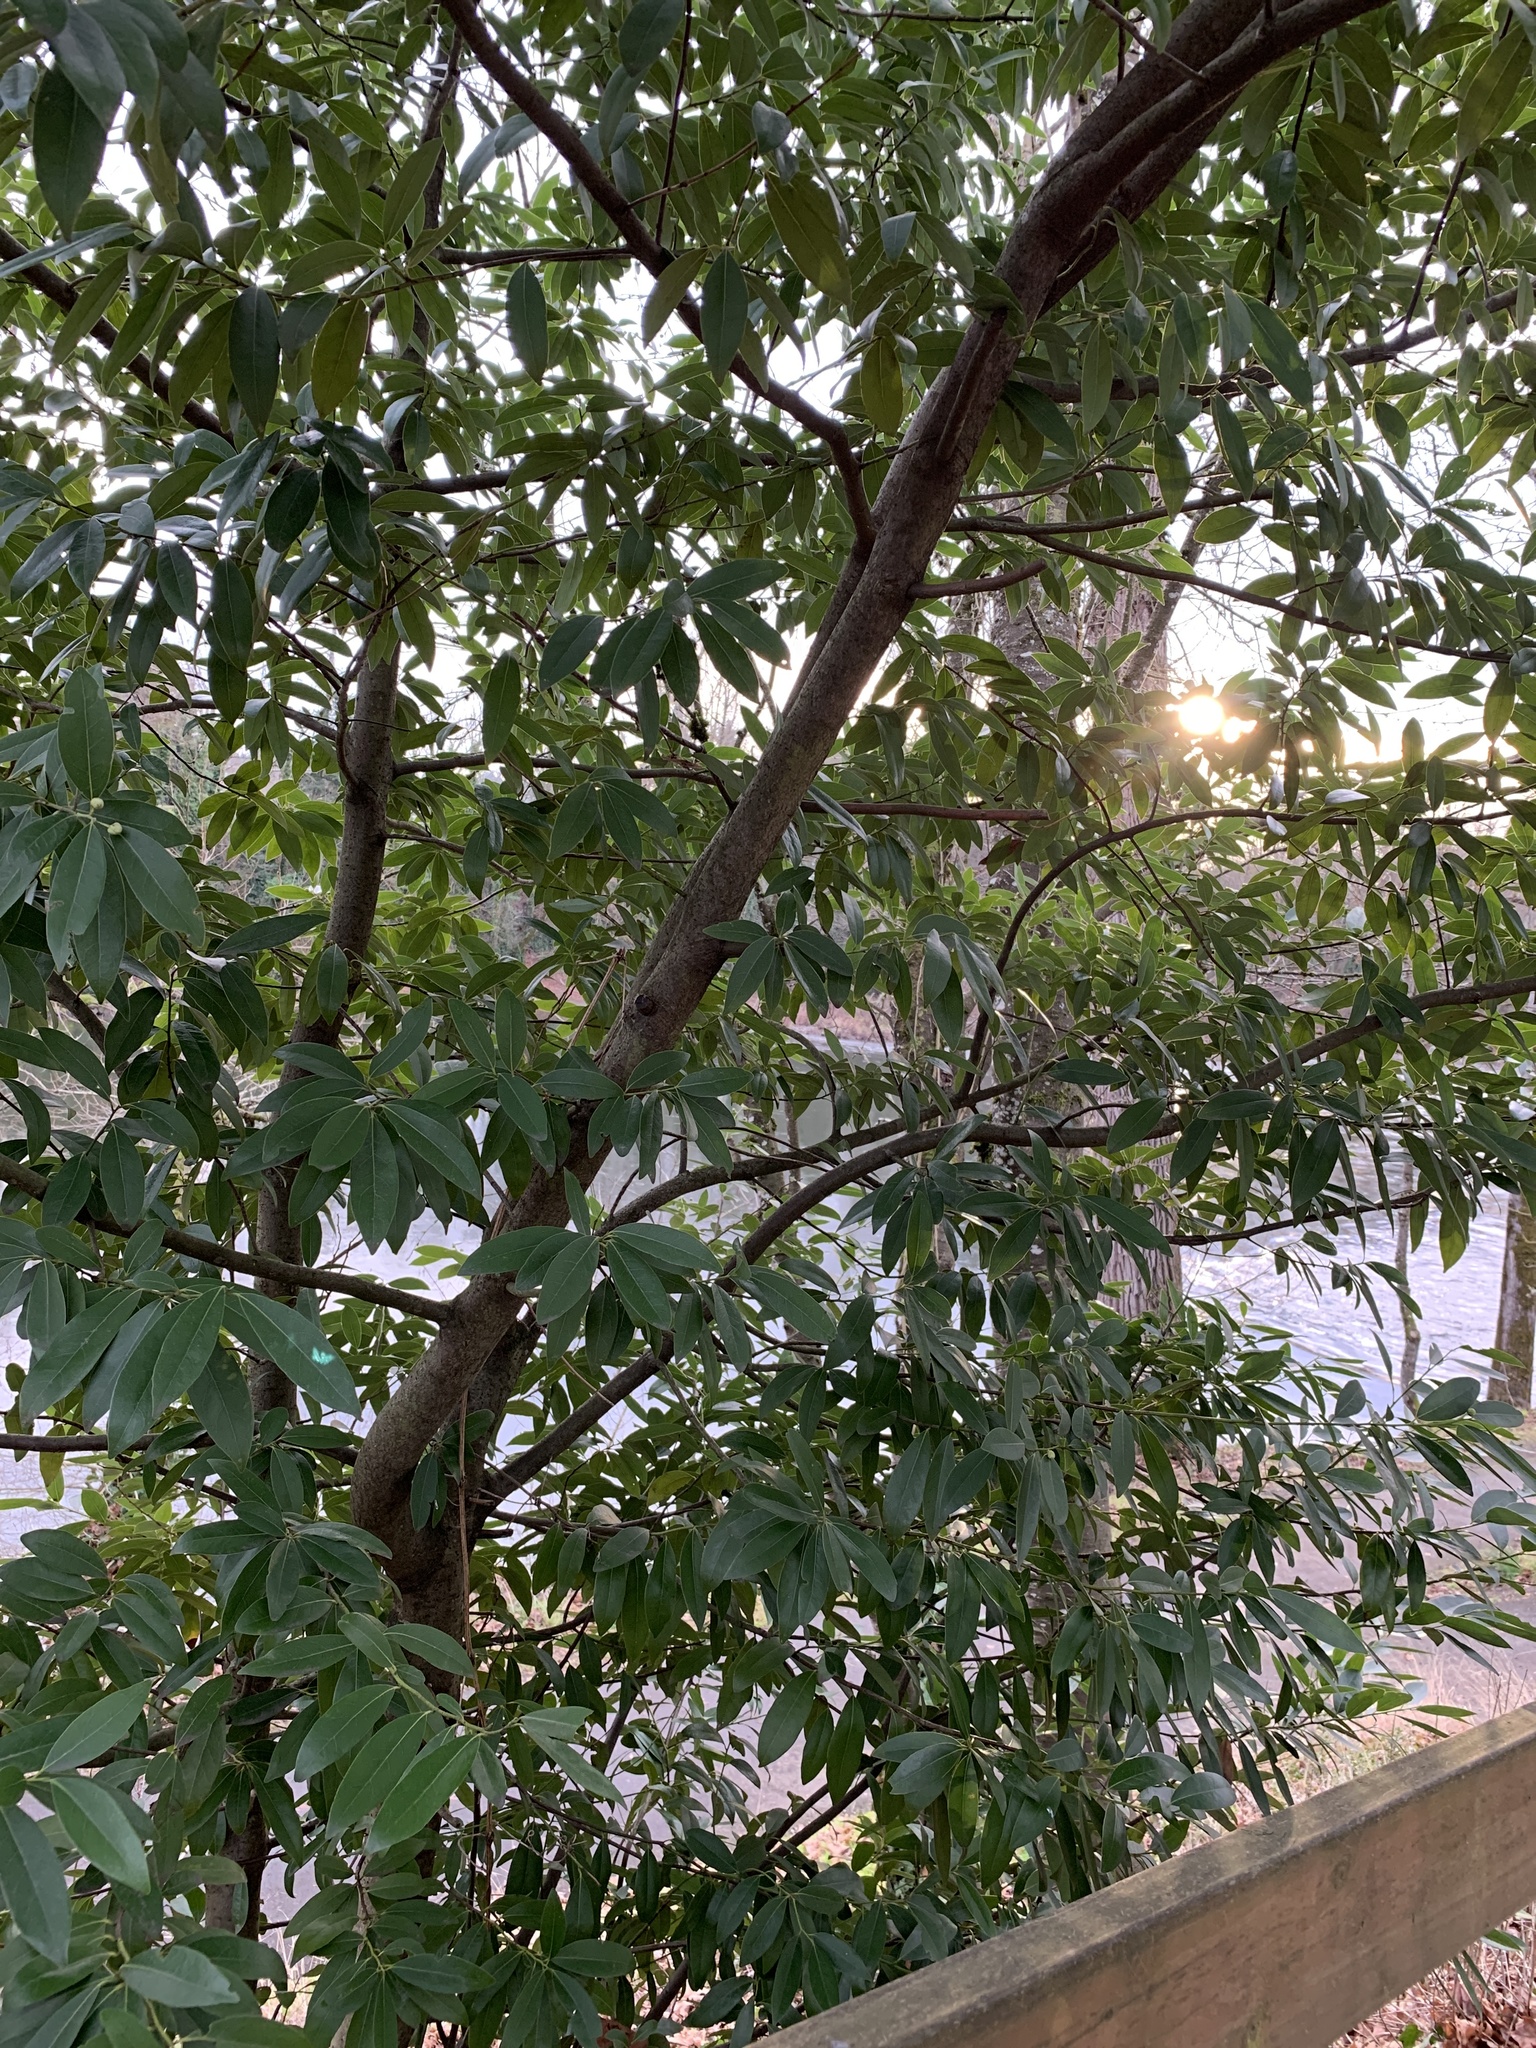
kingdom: Plantae
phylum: Tracheophyta
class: Magnoliopsida
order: Laurales
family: Lauraceae
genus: Umbellularia
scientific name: Umbellularia californica
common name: California bay
